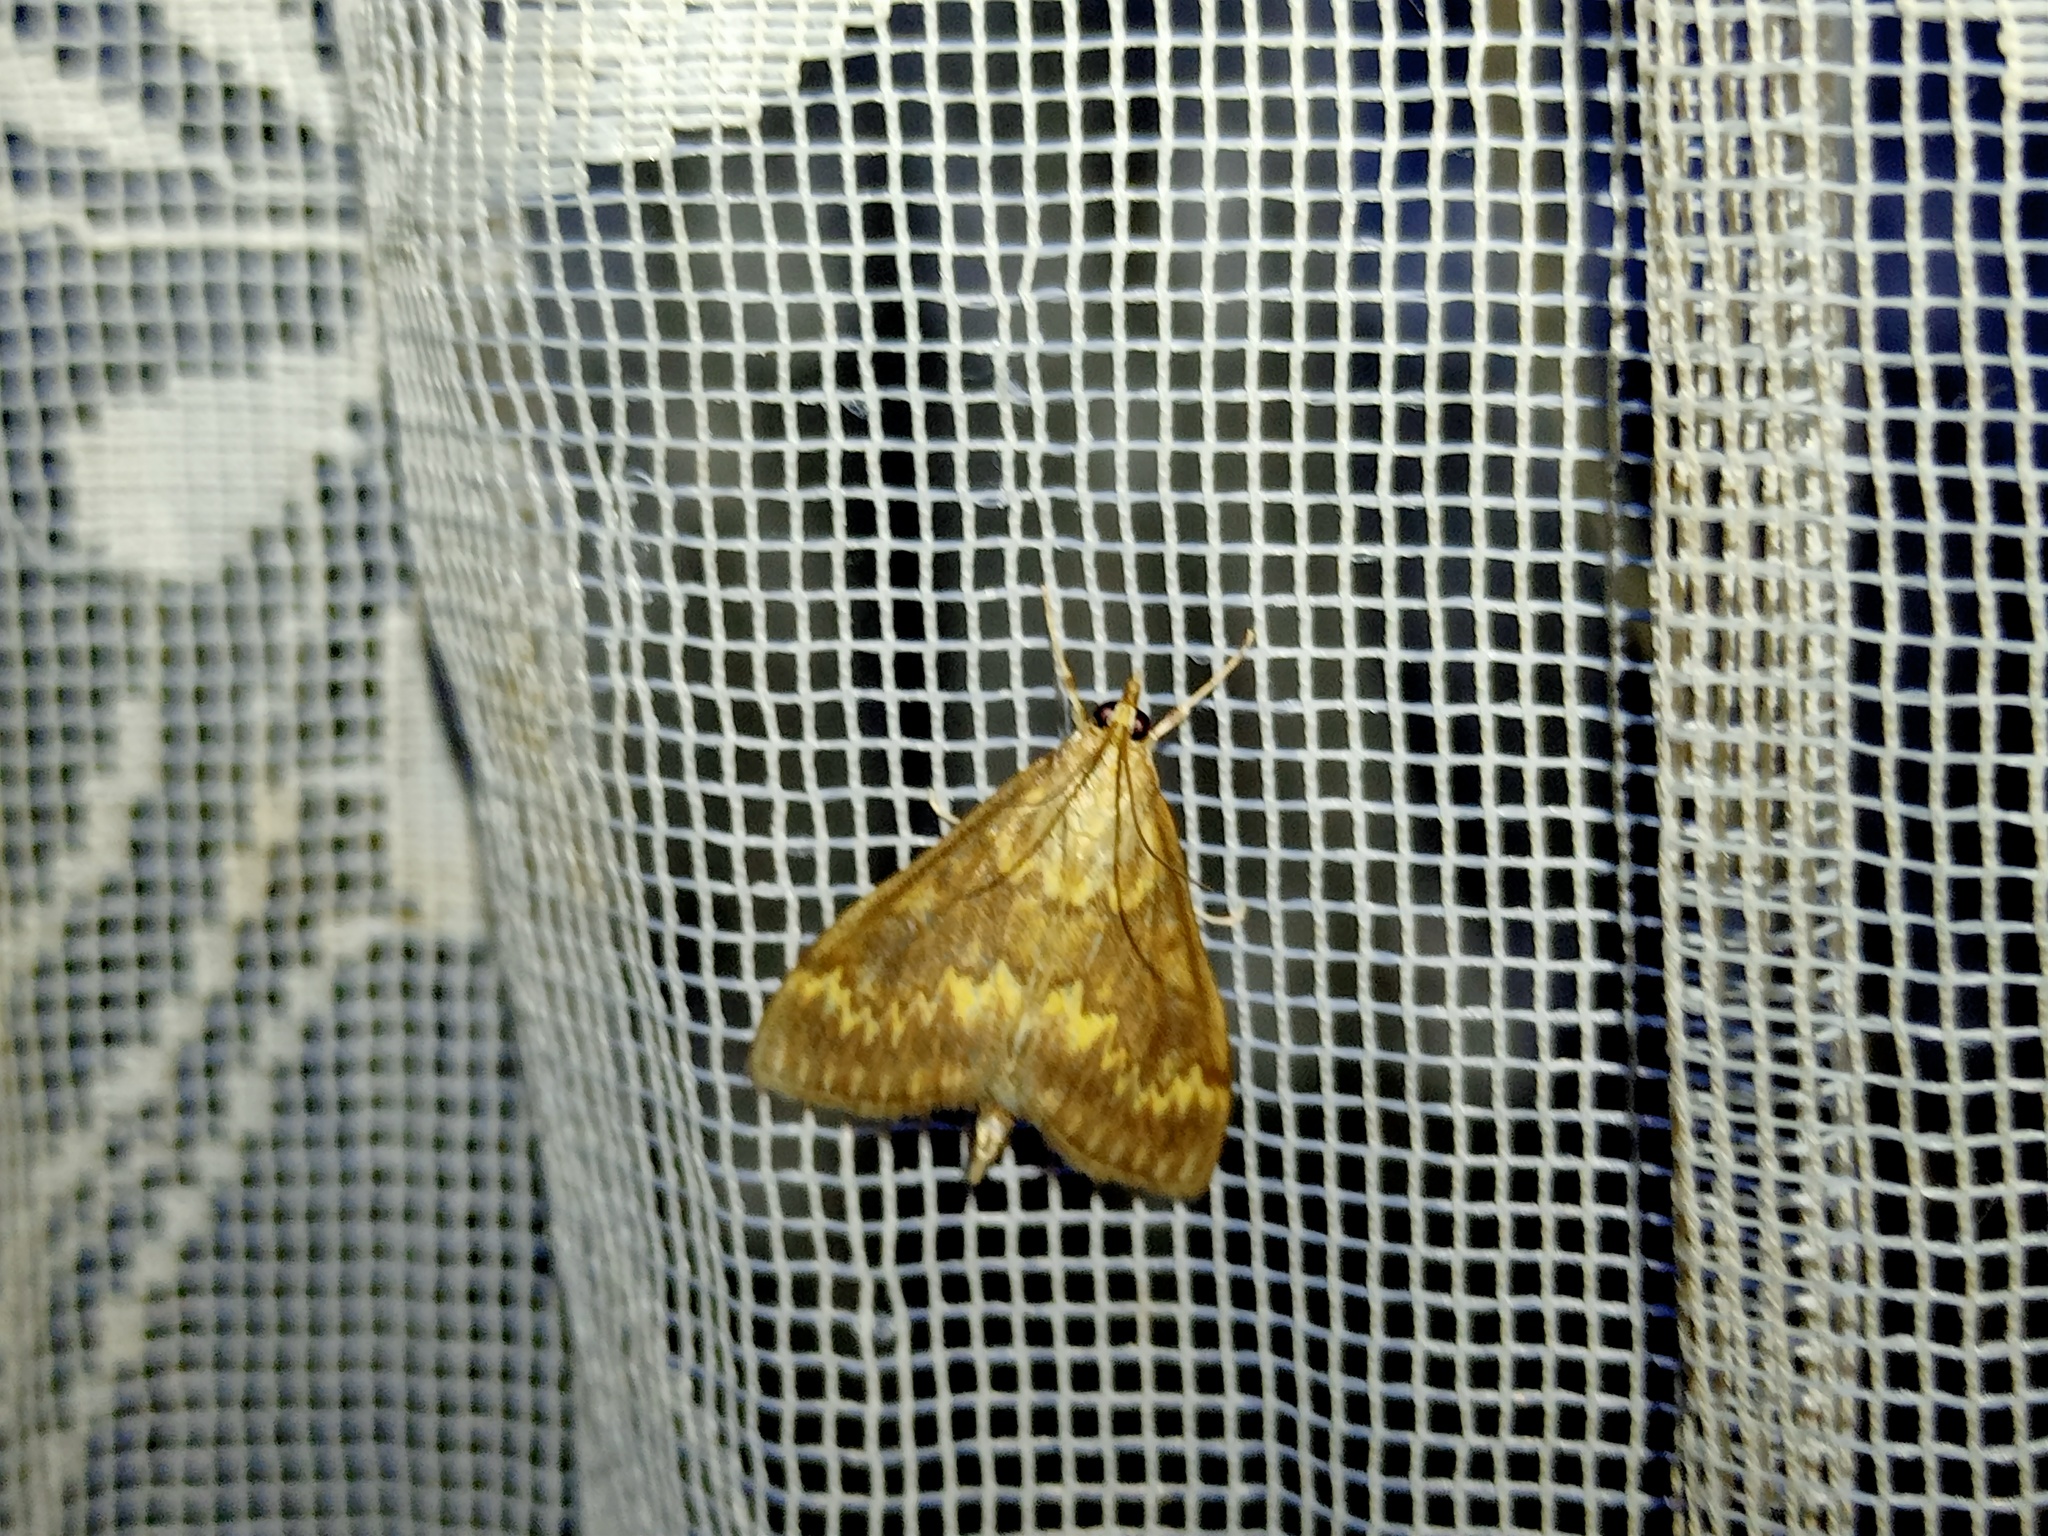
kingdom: Animalia
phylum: Arthropoda
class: Insecta
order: Lepidoptera
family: Crambidae
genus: Ostrinia
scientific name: Ostrinia nubilalis
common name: European corn borer
